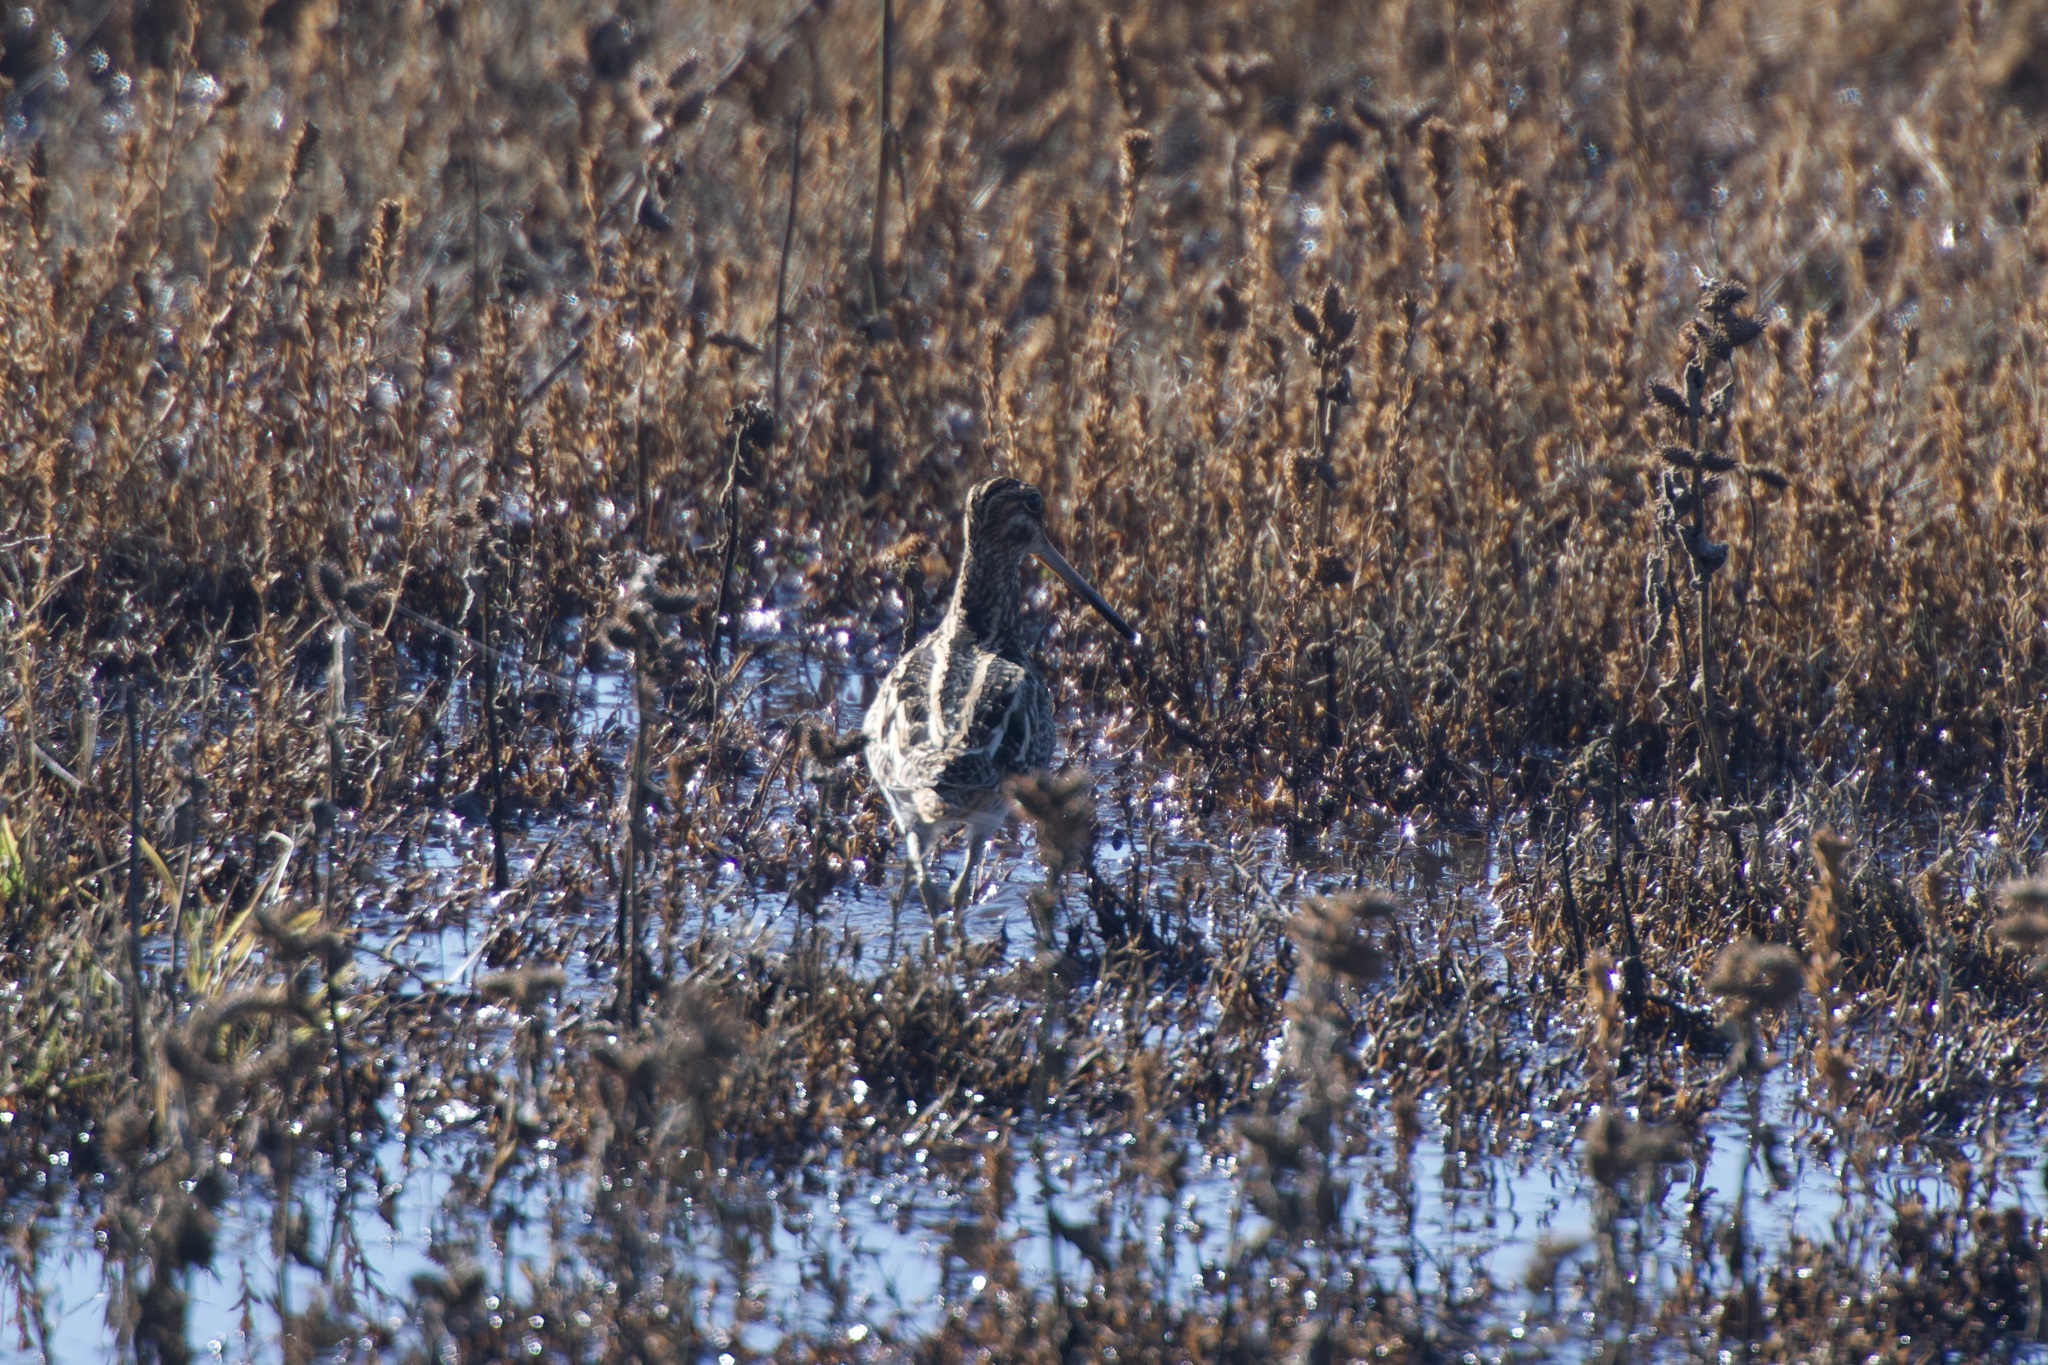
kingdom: Animalia
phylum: Chordata
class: Aves
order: Charadriiformes
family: Scolopacidae
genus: Gallinago
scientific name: Gallinago delicata
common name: Wilson's snipe
